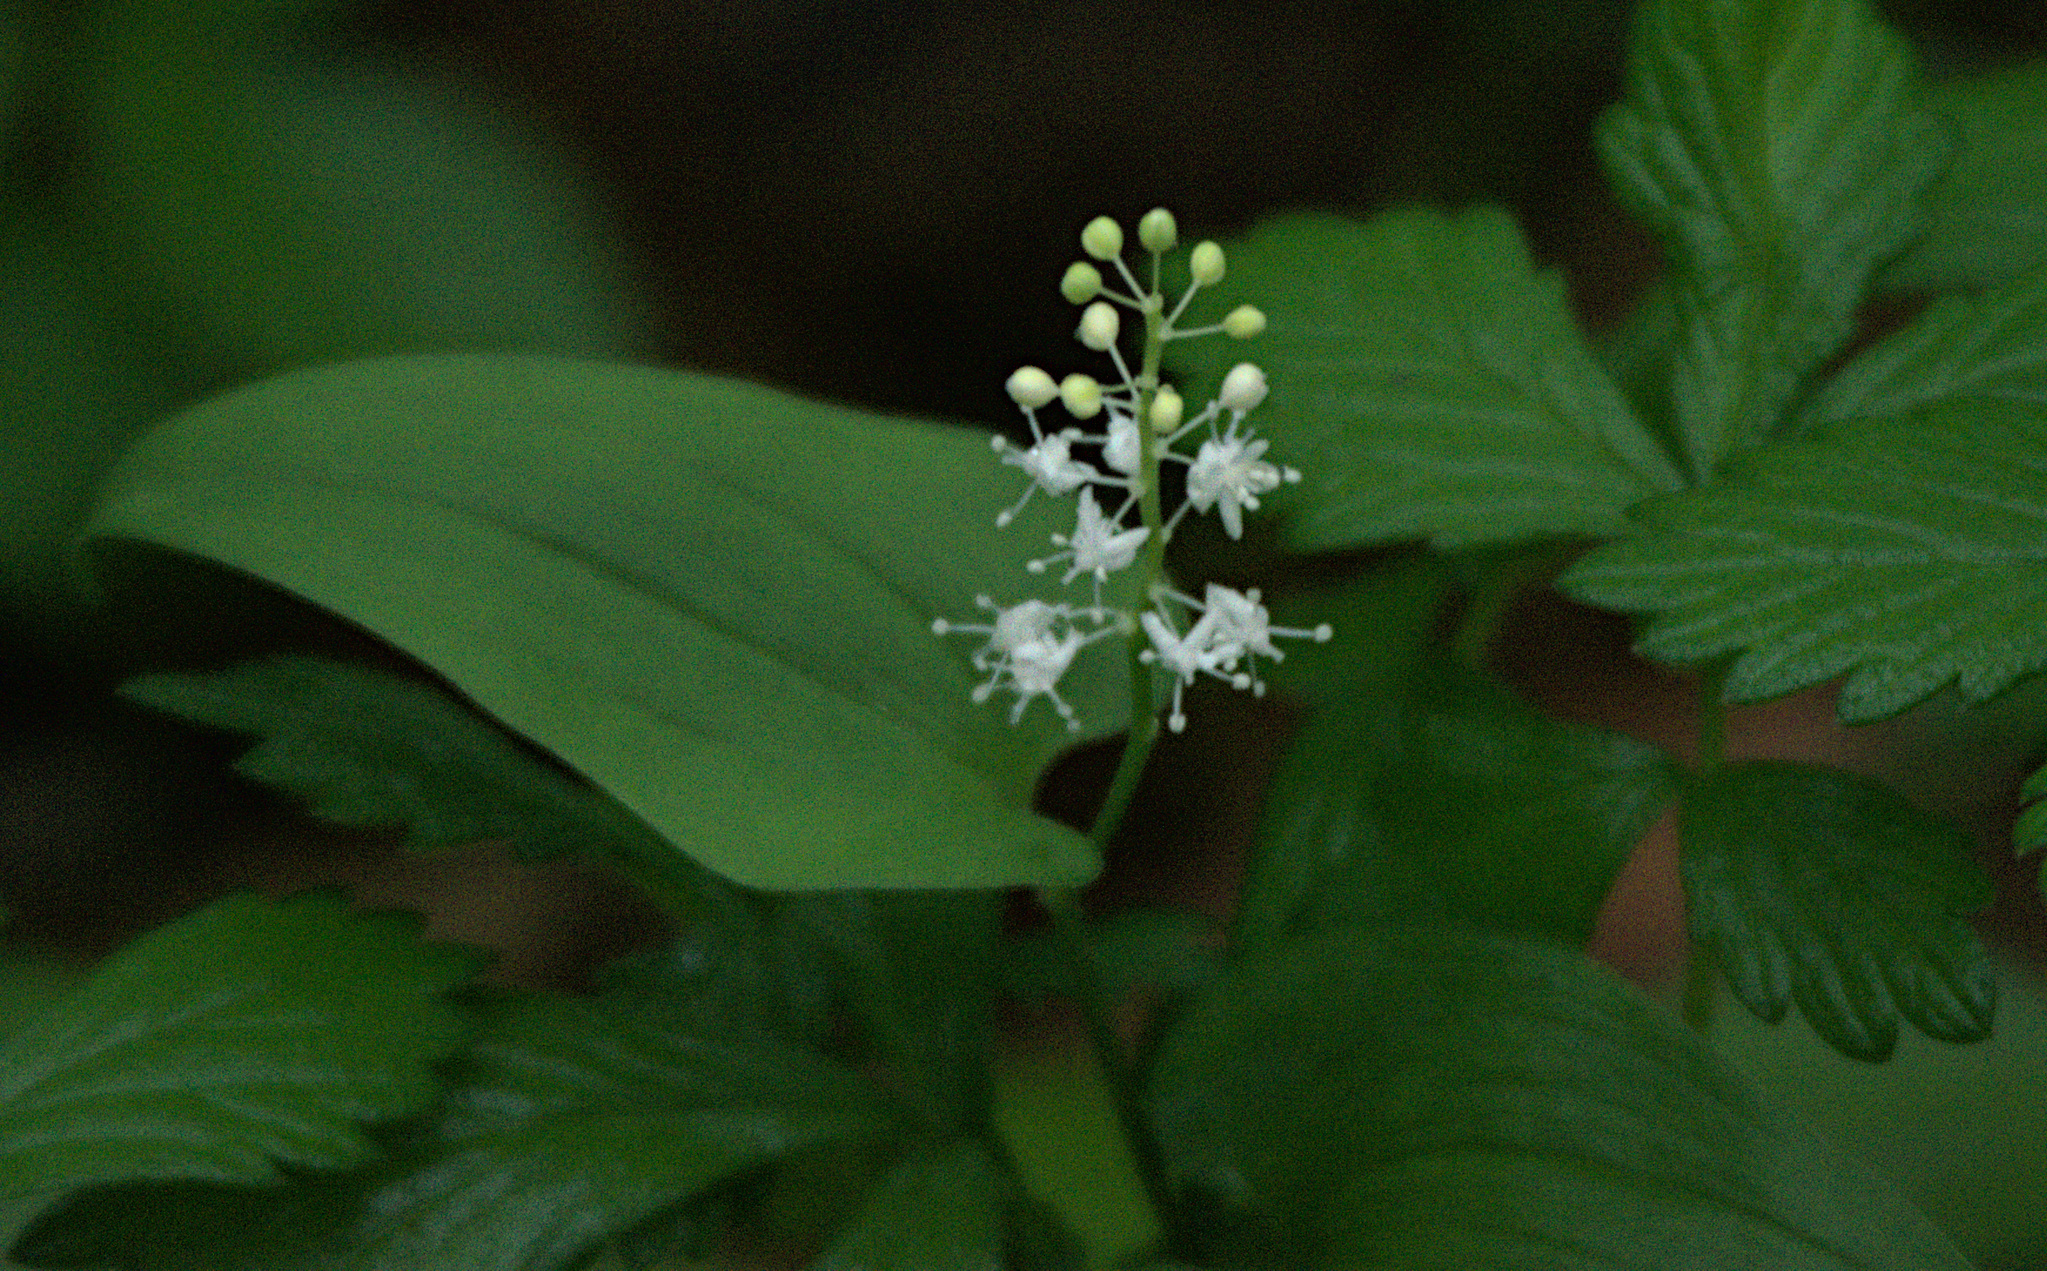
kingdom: Plantae
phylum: Tracheophyta
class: Liliopsida
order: Asparagales
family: Asparagaceae
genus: Maianthemum
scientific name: Maianthemum bifolium
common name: May lily
